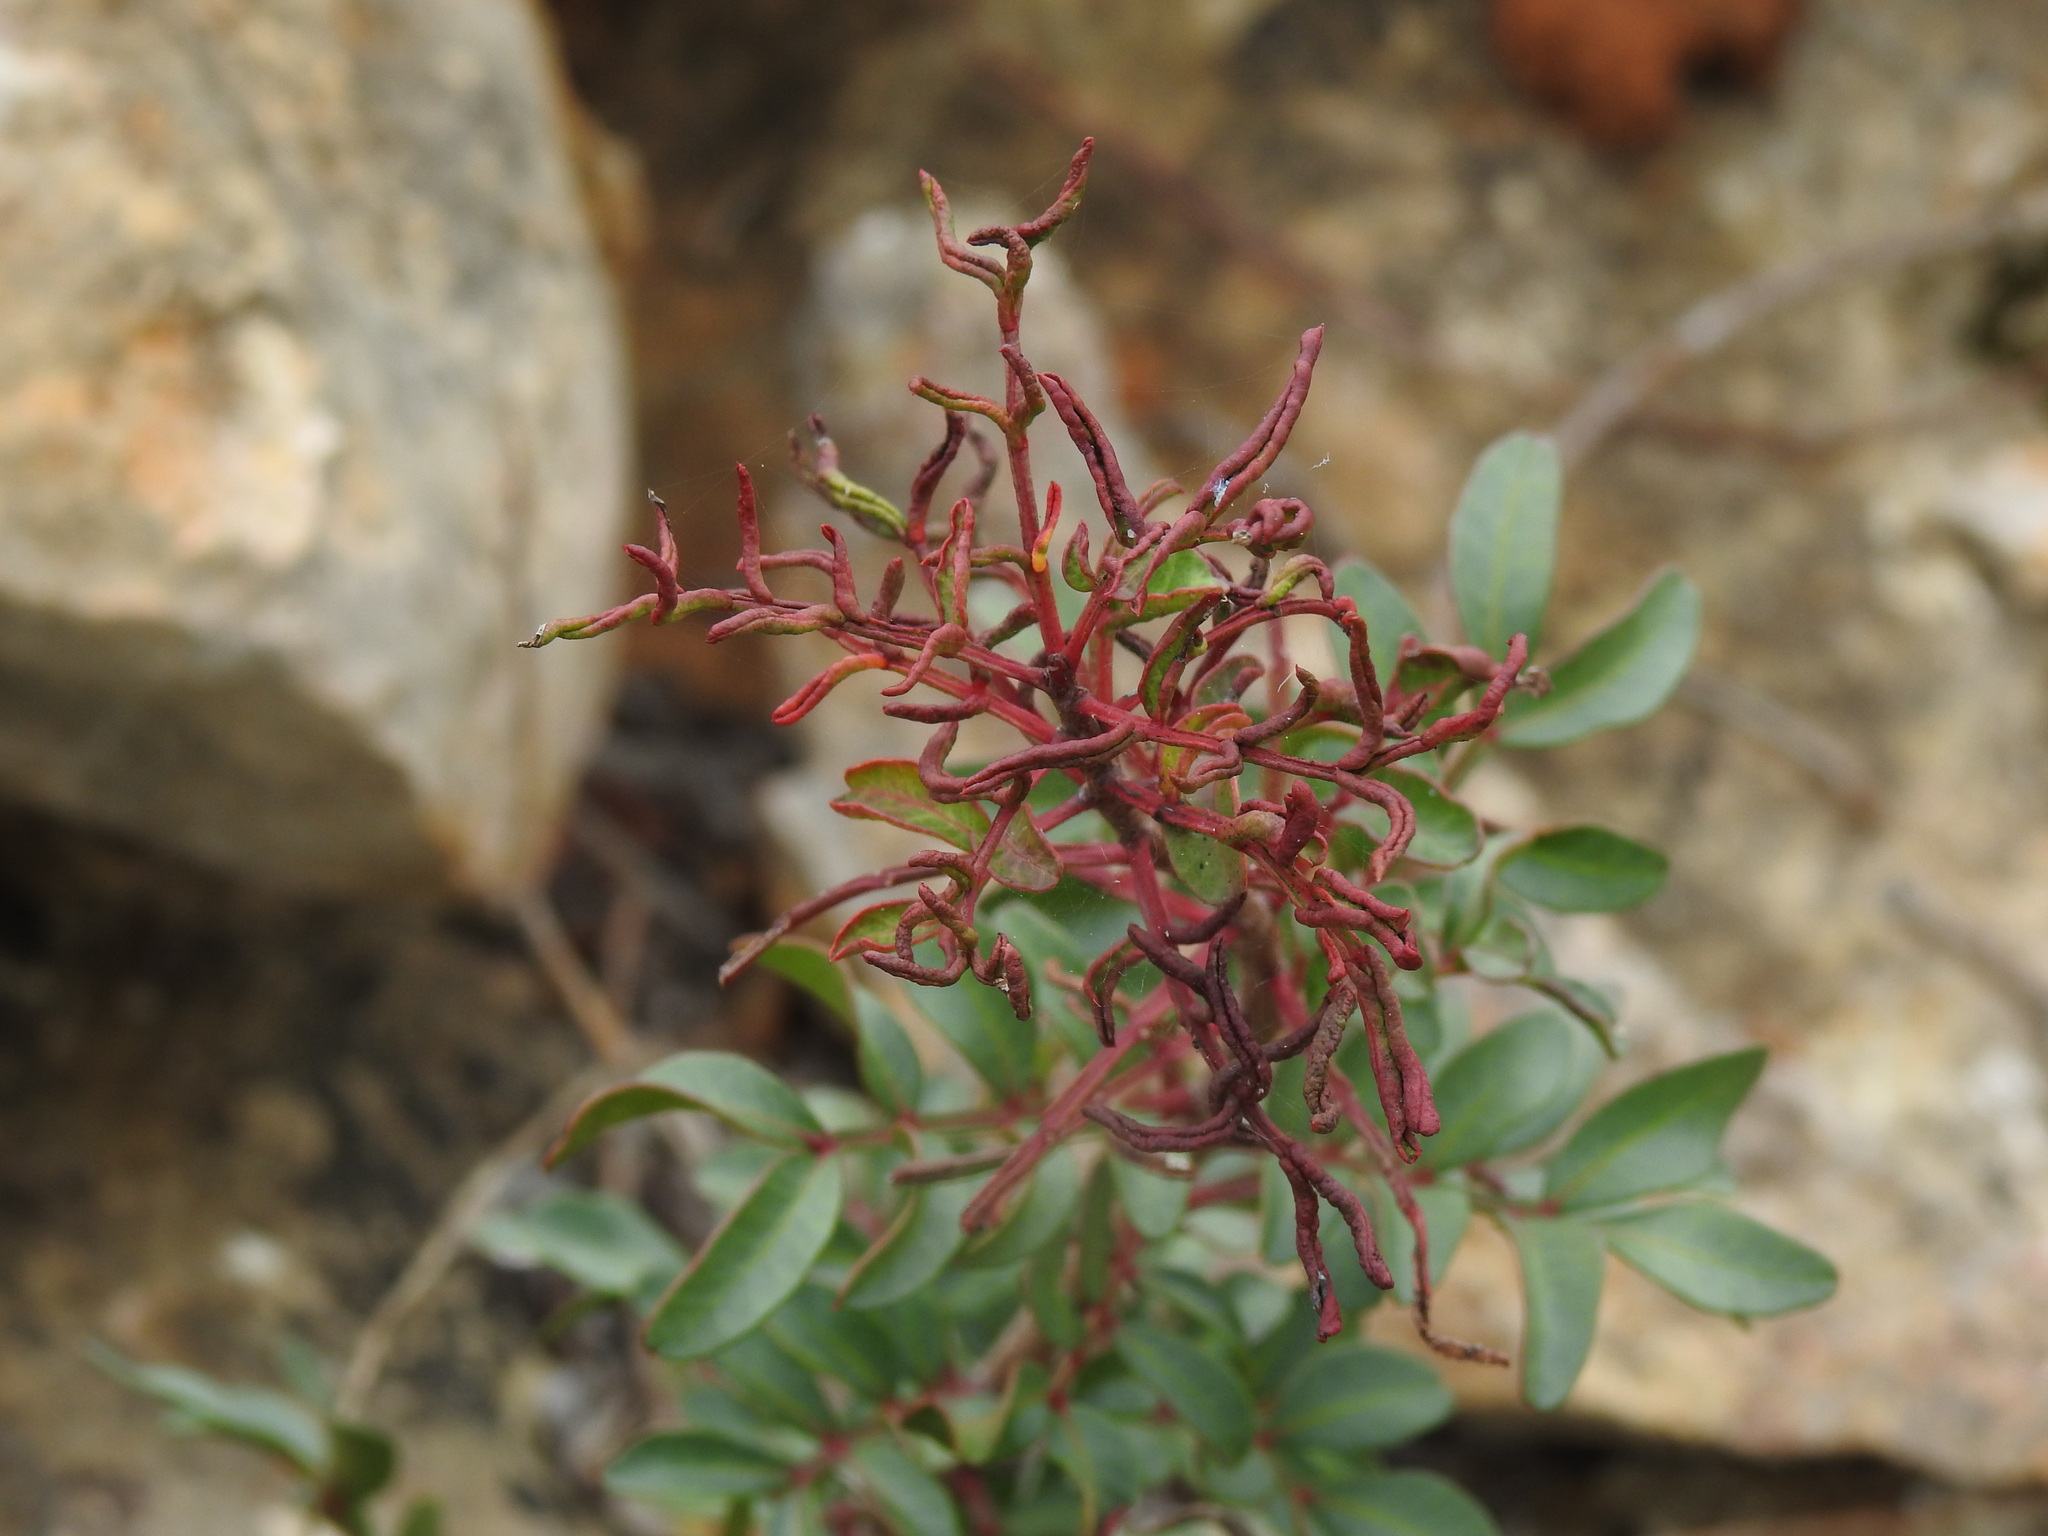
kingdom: Animalia
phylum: Arthropoda
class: Arachnida
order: Trombidiformes
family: Eriophyidae
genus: Aceria
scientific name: Aceria stefanii
